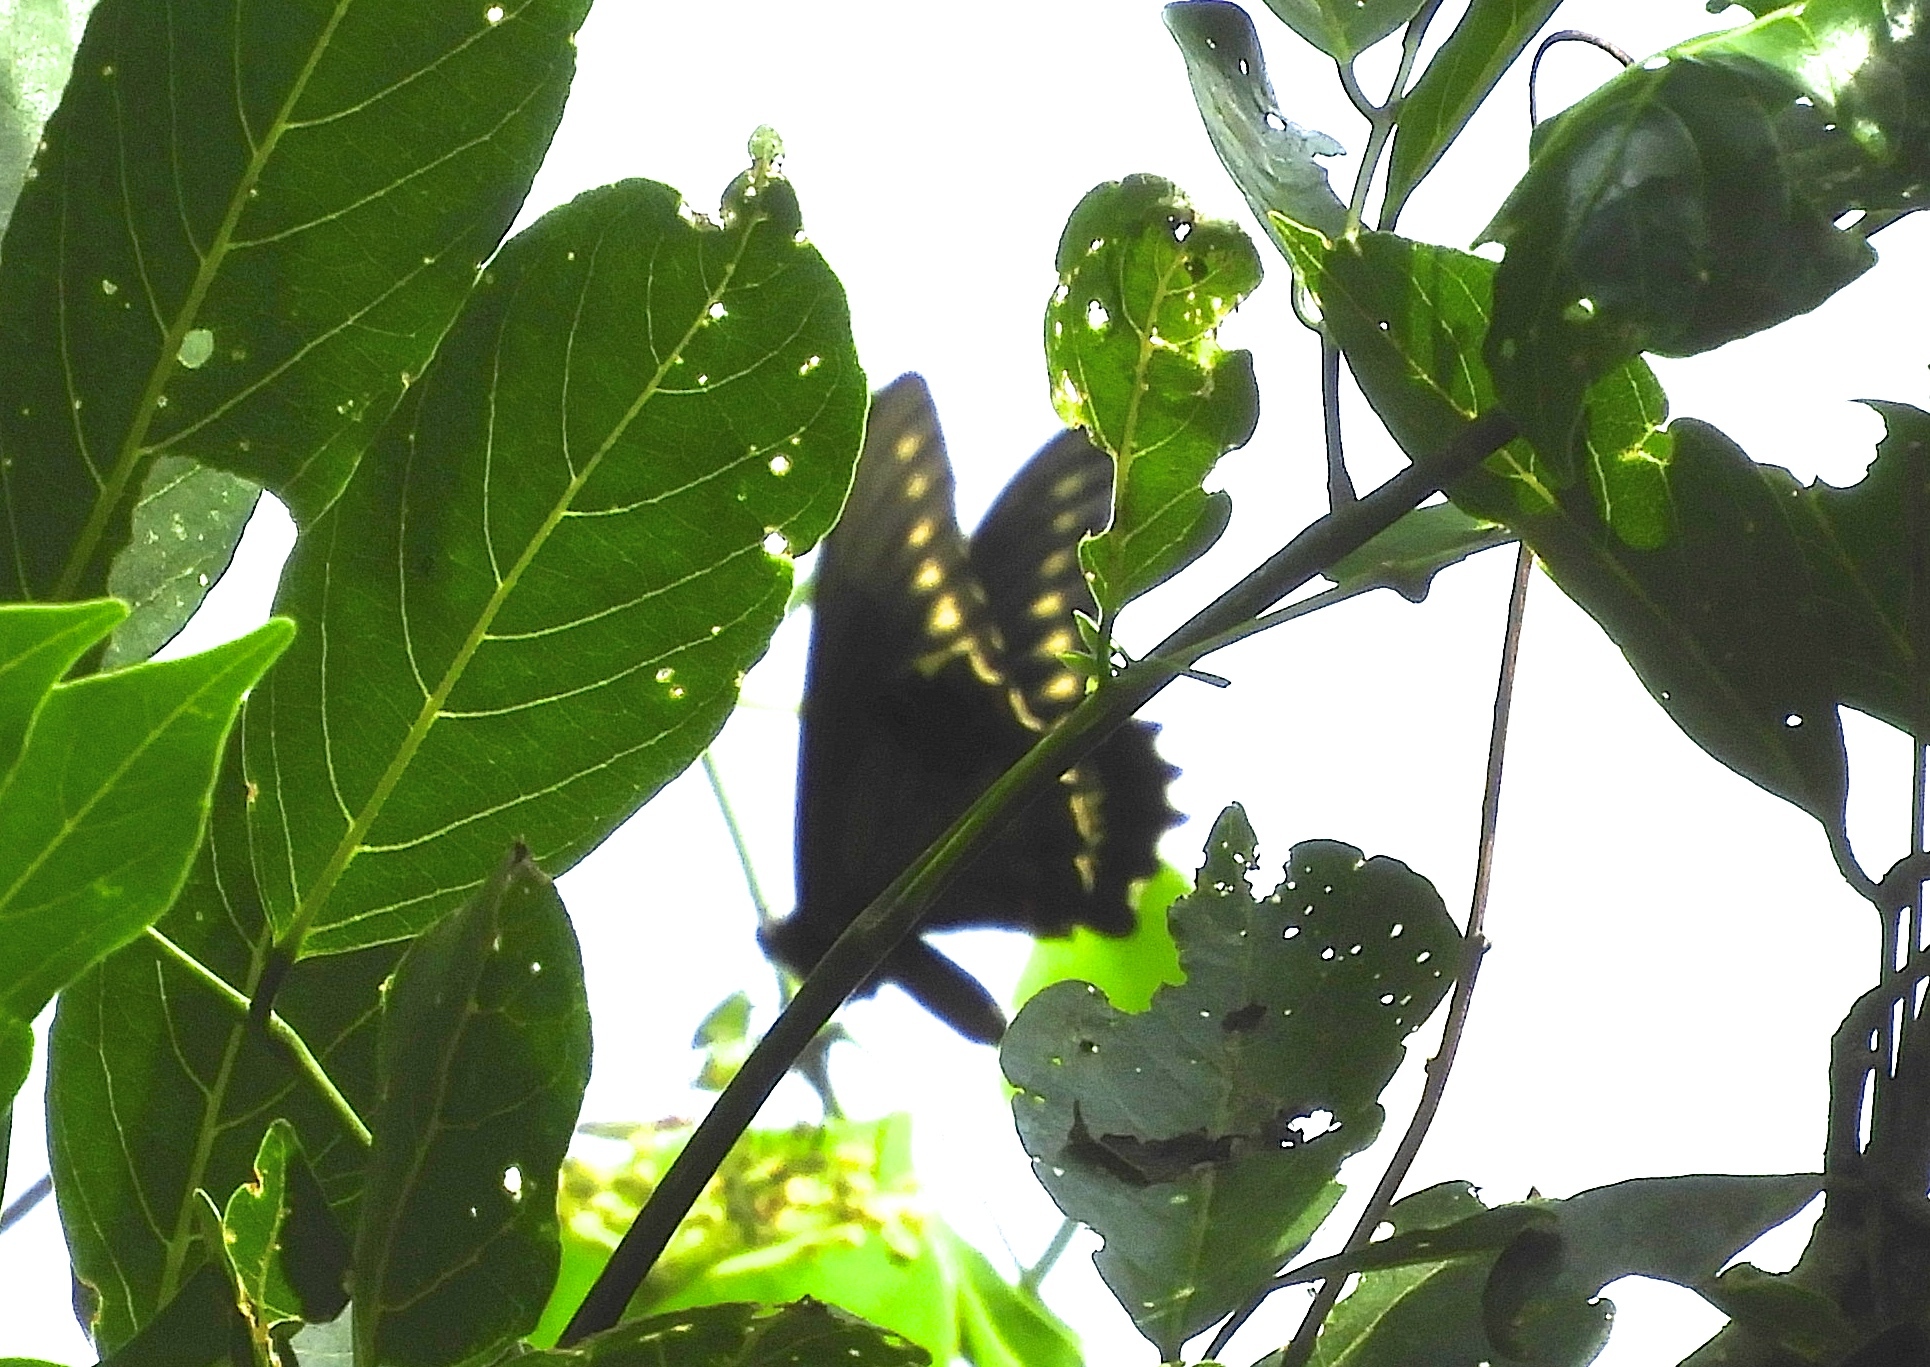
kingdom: Animalia
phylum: Arthropoda
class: Insecta
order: Lepidoptera
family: Papilionidae
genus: Battus
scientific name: Battus polydamas
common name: Polydamas swallowtail
